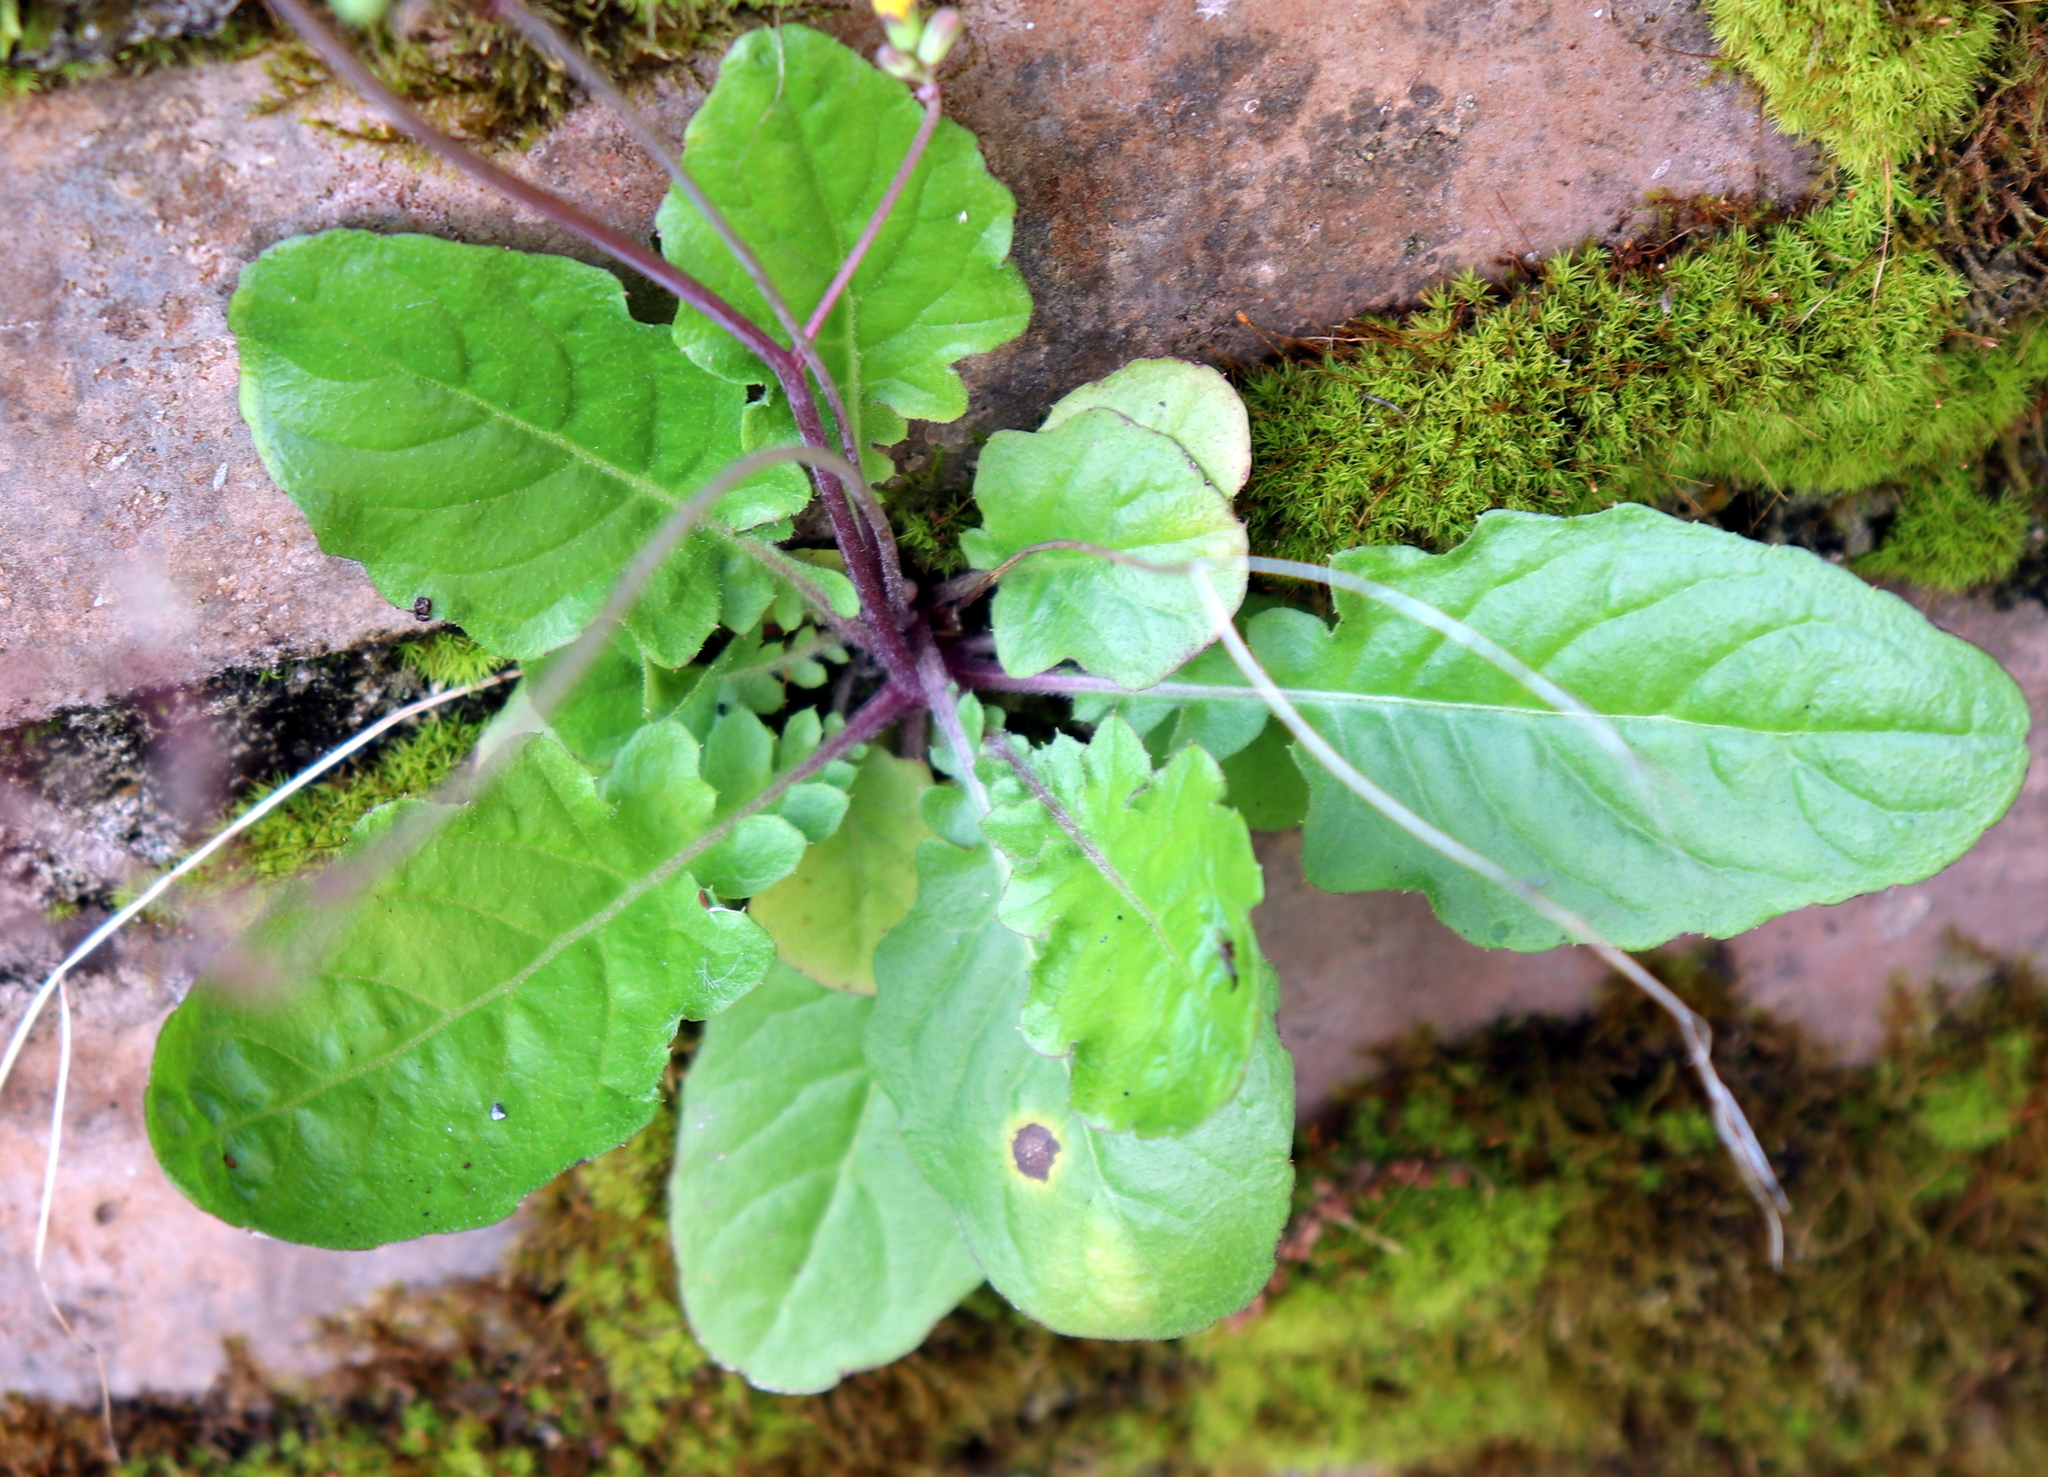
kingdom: Plantae
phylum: Tracheophyta
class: Magnoliopsida
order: Asterales
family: Asteraceae
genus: Youngia
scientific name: Youngia japonica
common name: Oriental false hawksbeard
